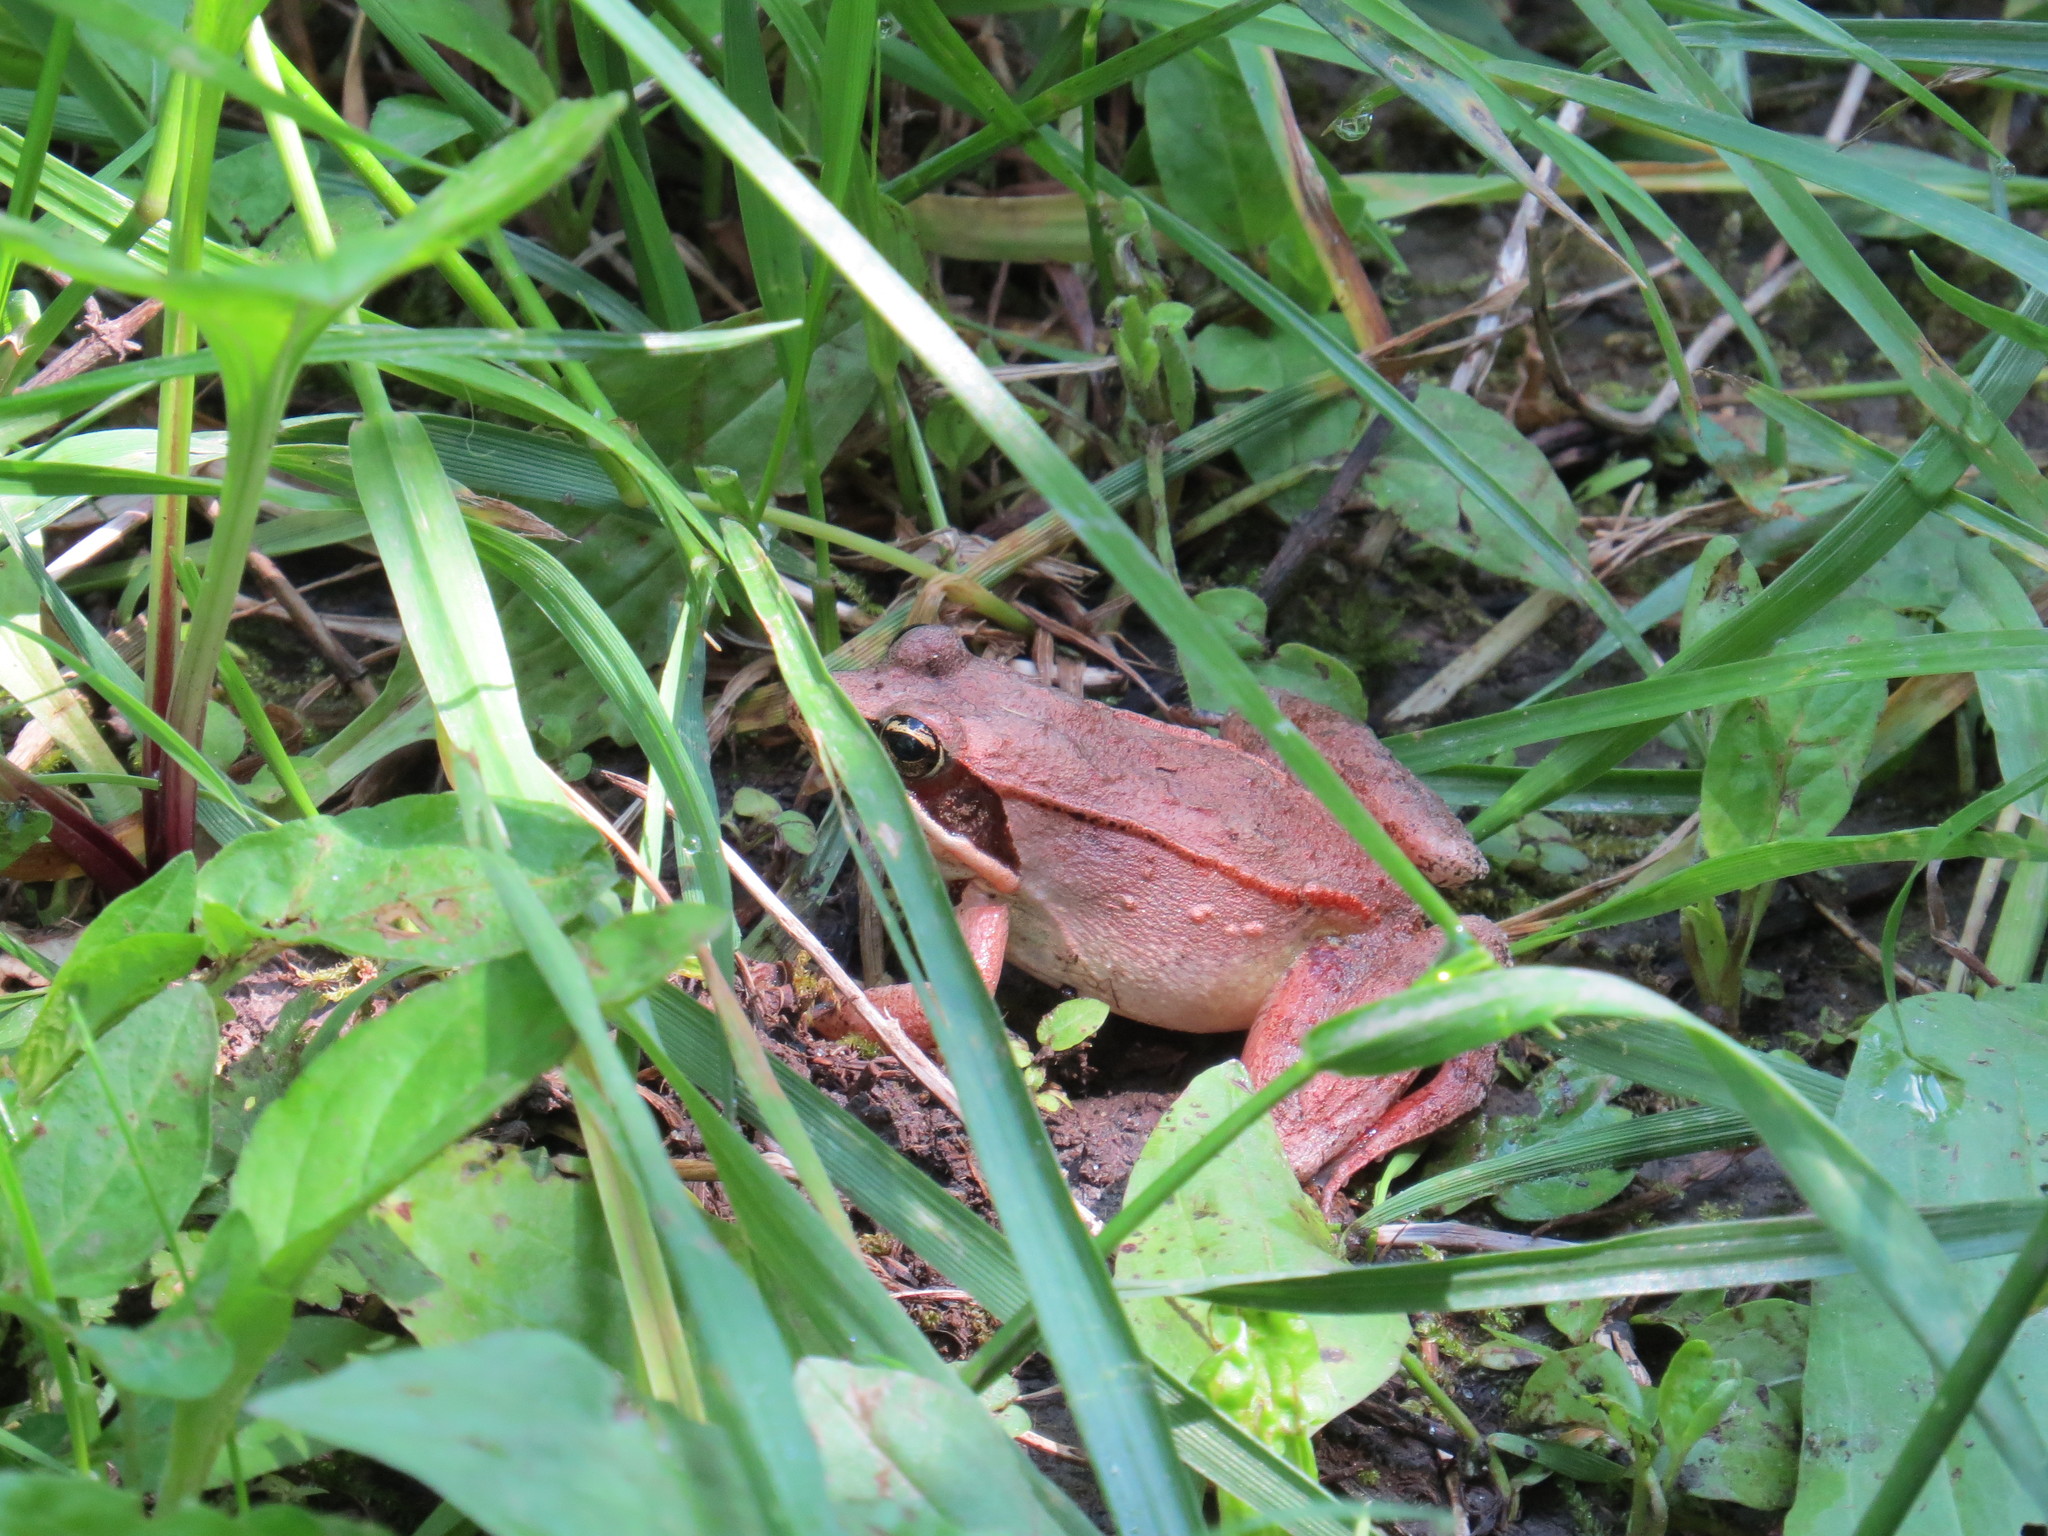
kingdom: Animalia
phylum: Chordata
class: Amphibia
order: Anura
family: Ranidae
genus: Lithobates
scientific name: Lithobates sylvaticus
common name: Wood frog
